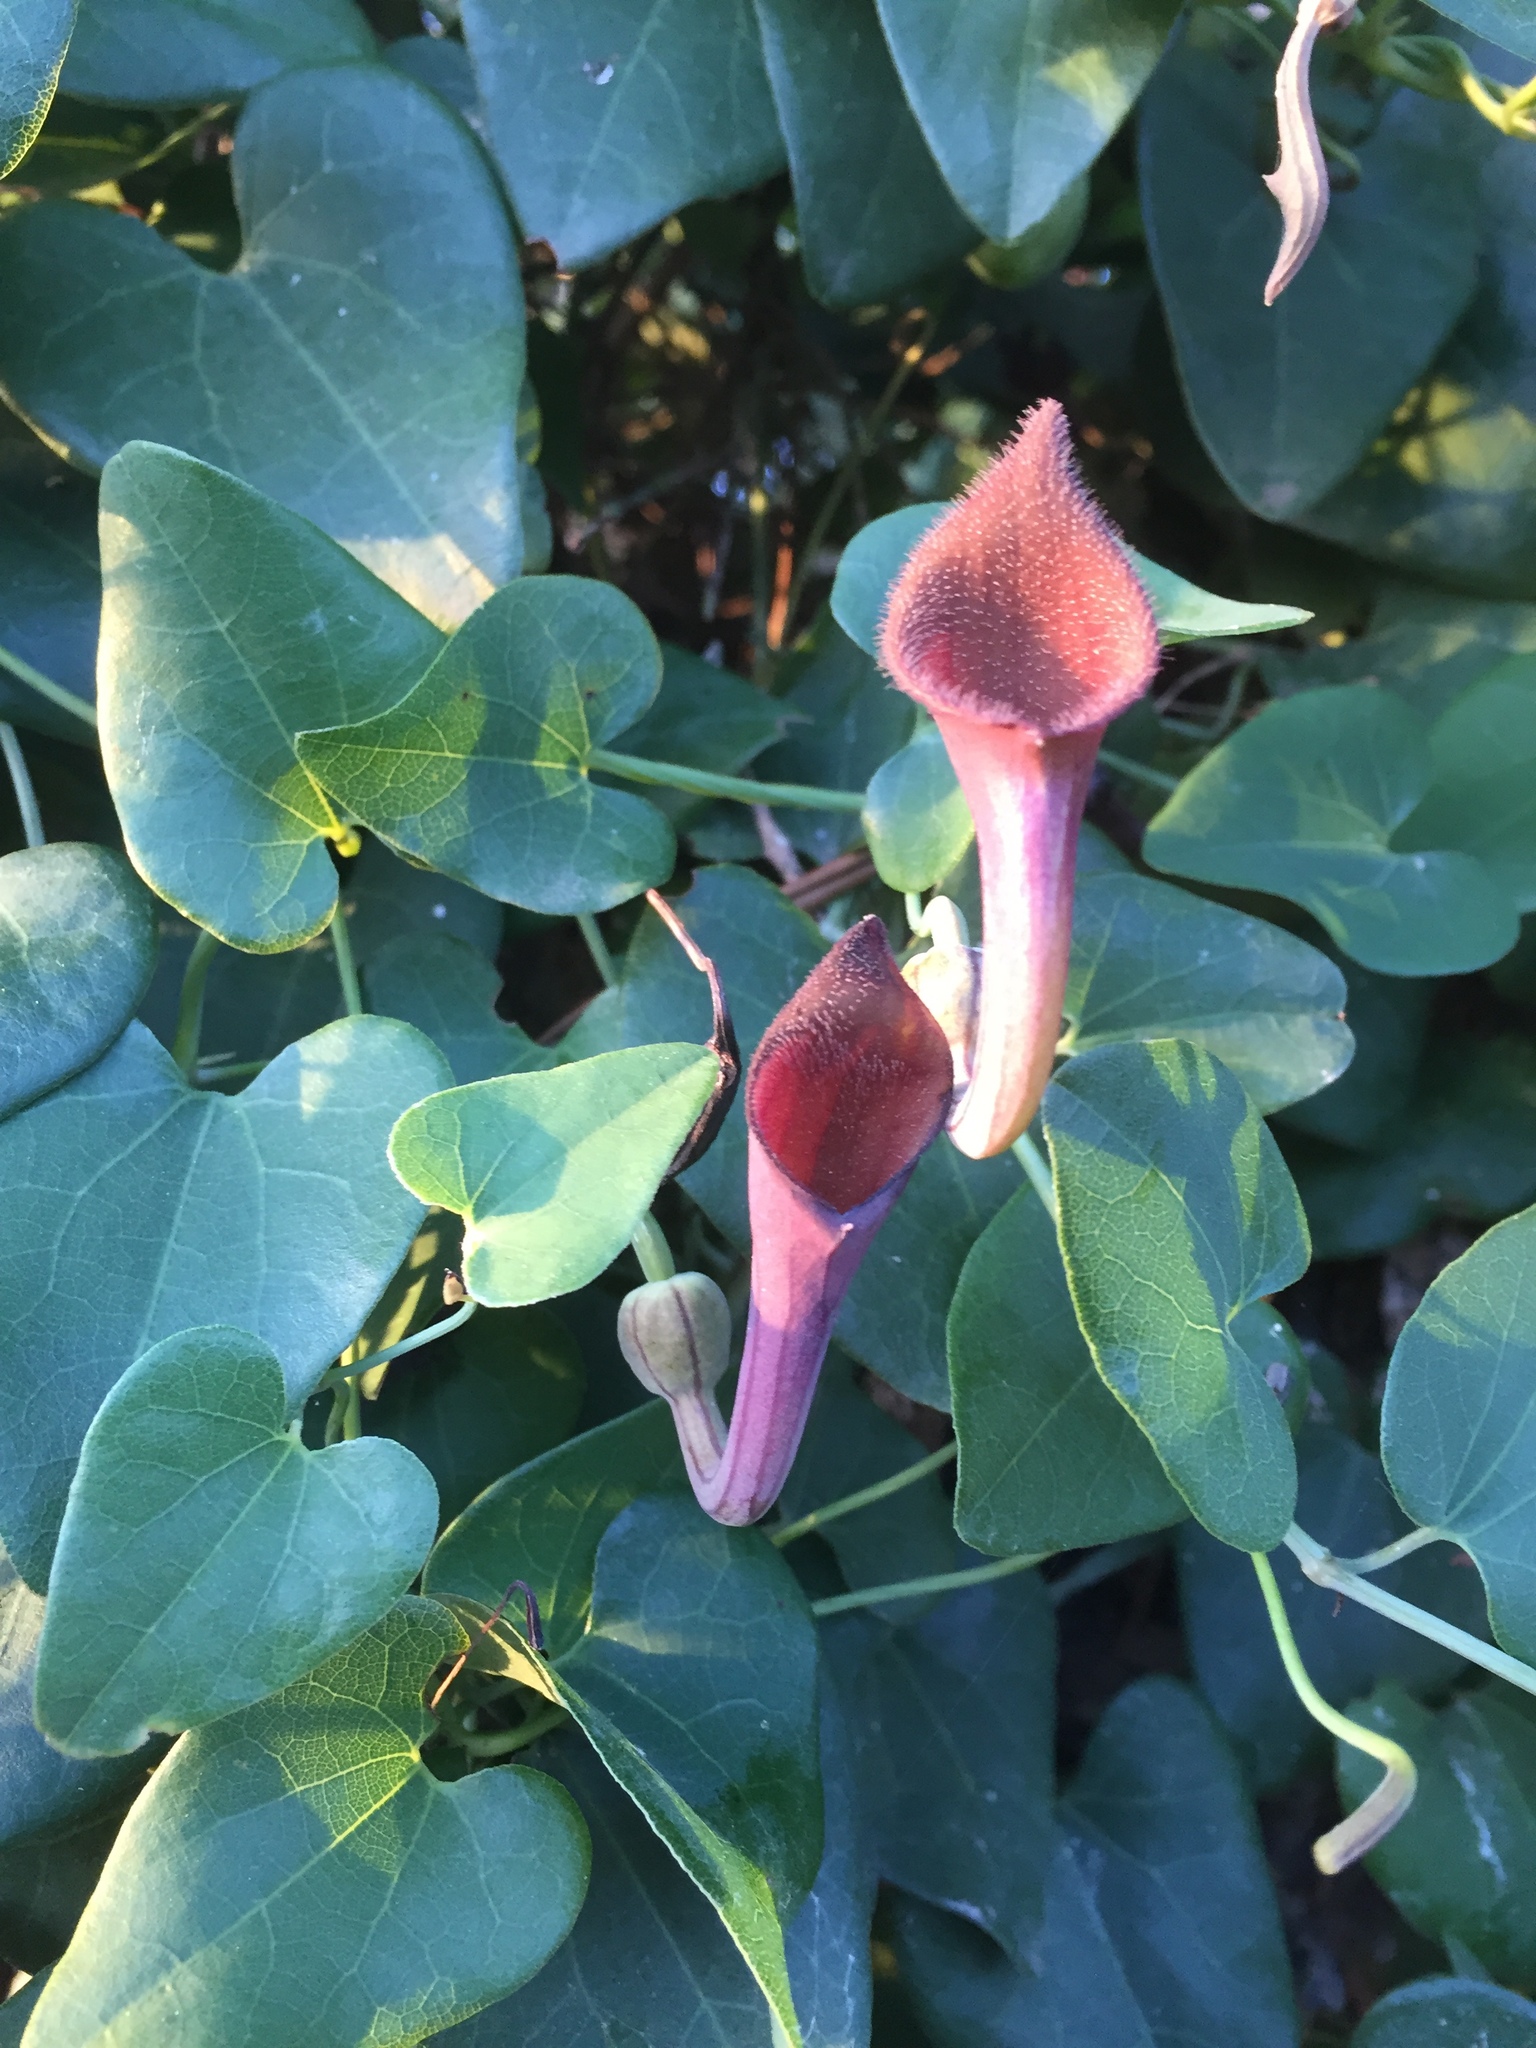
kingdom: Plantae
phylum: Tracheophyta
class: Magnoliopsida
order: Piperales
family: Aristolochiaceae
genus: Aristolochia
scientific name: Aristolochia baetica
